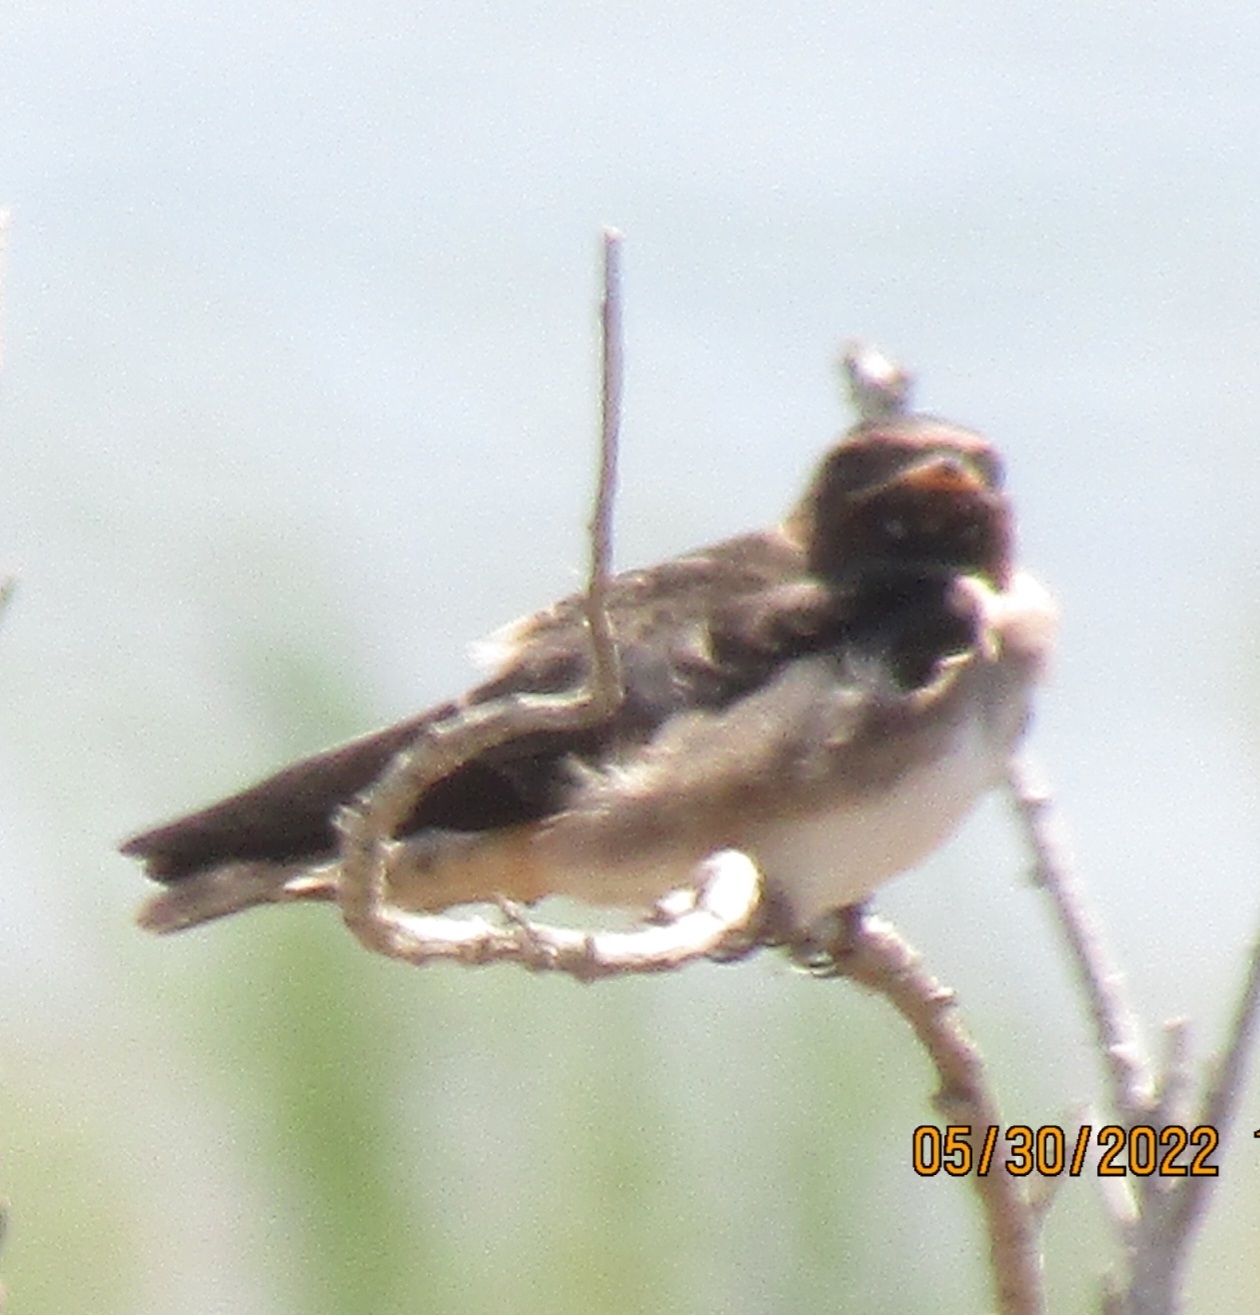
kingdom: Animalia
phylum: Chordata
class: Aves
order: Passeriformes
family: Hirundinidae
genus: Petrochelidon
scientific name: Petrochelidon pyrrhonota
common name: American cliff swallow
